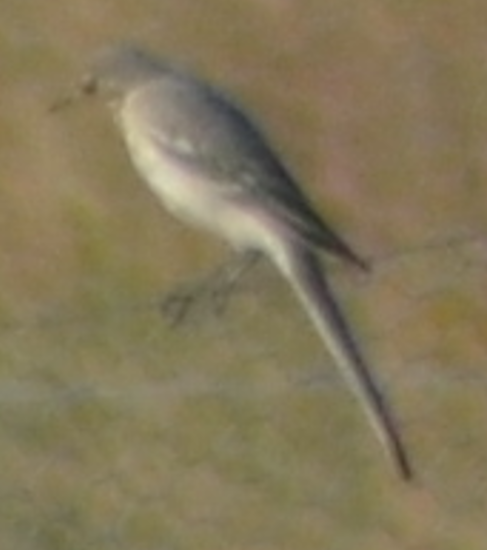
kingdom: Animalia
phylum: Chordata
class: Aves
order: Passeriformes
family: Motacillidae
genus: Motacilla
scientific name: Motacilla alba
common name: White wagtail
